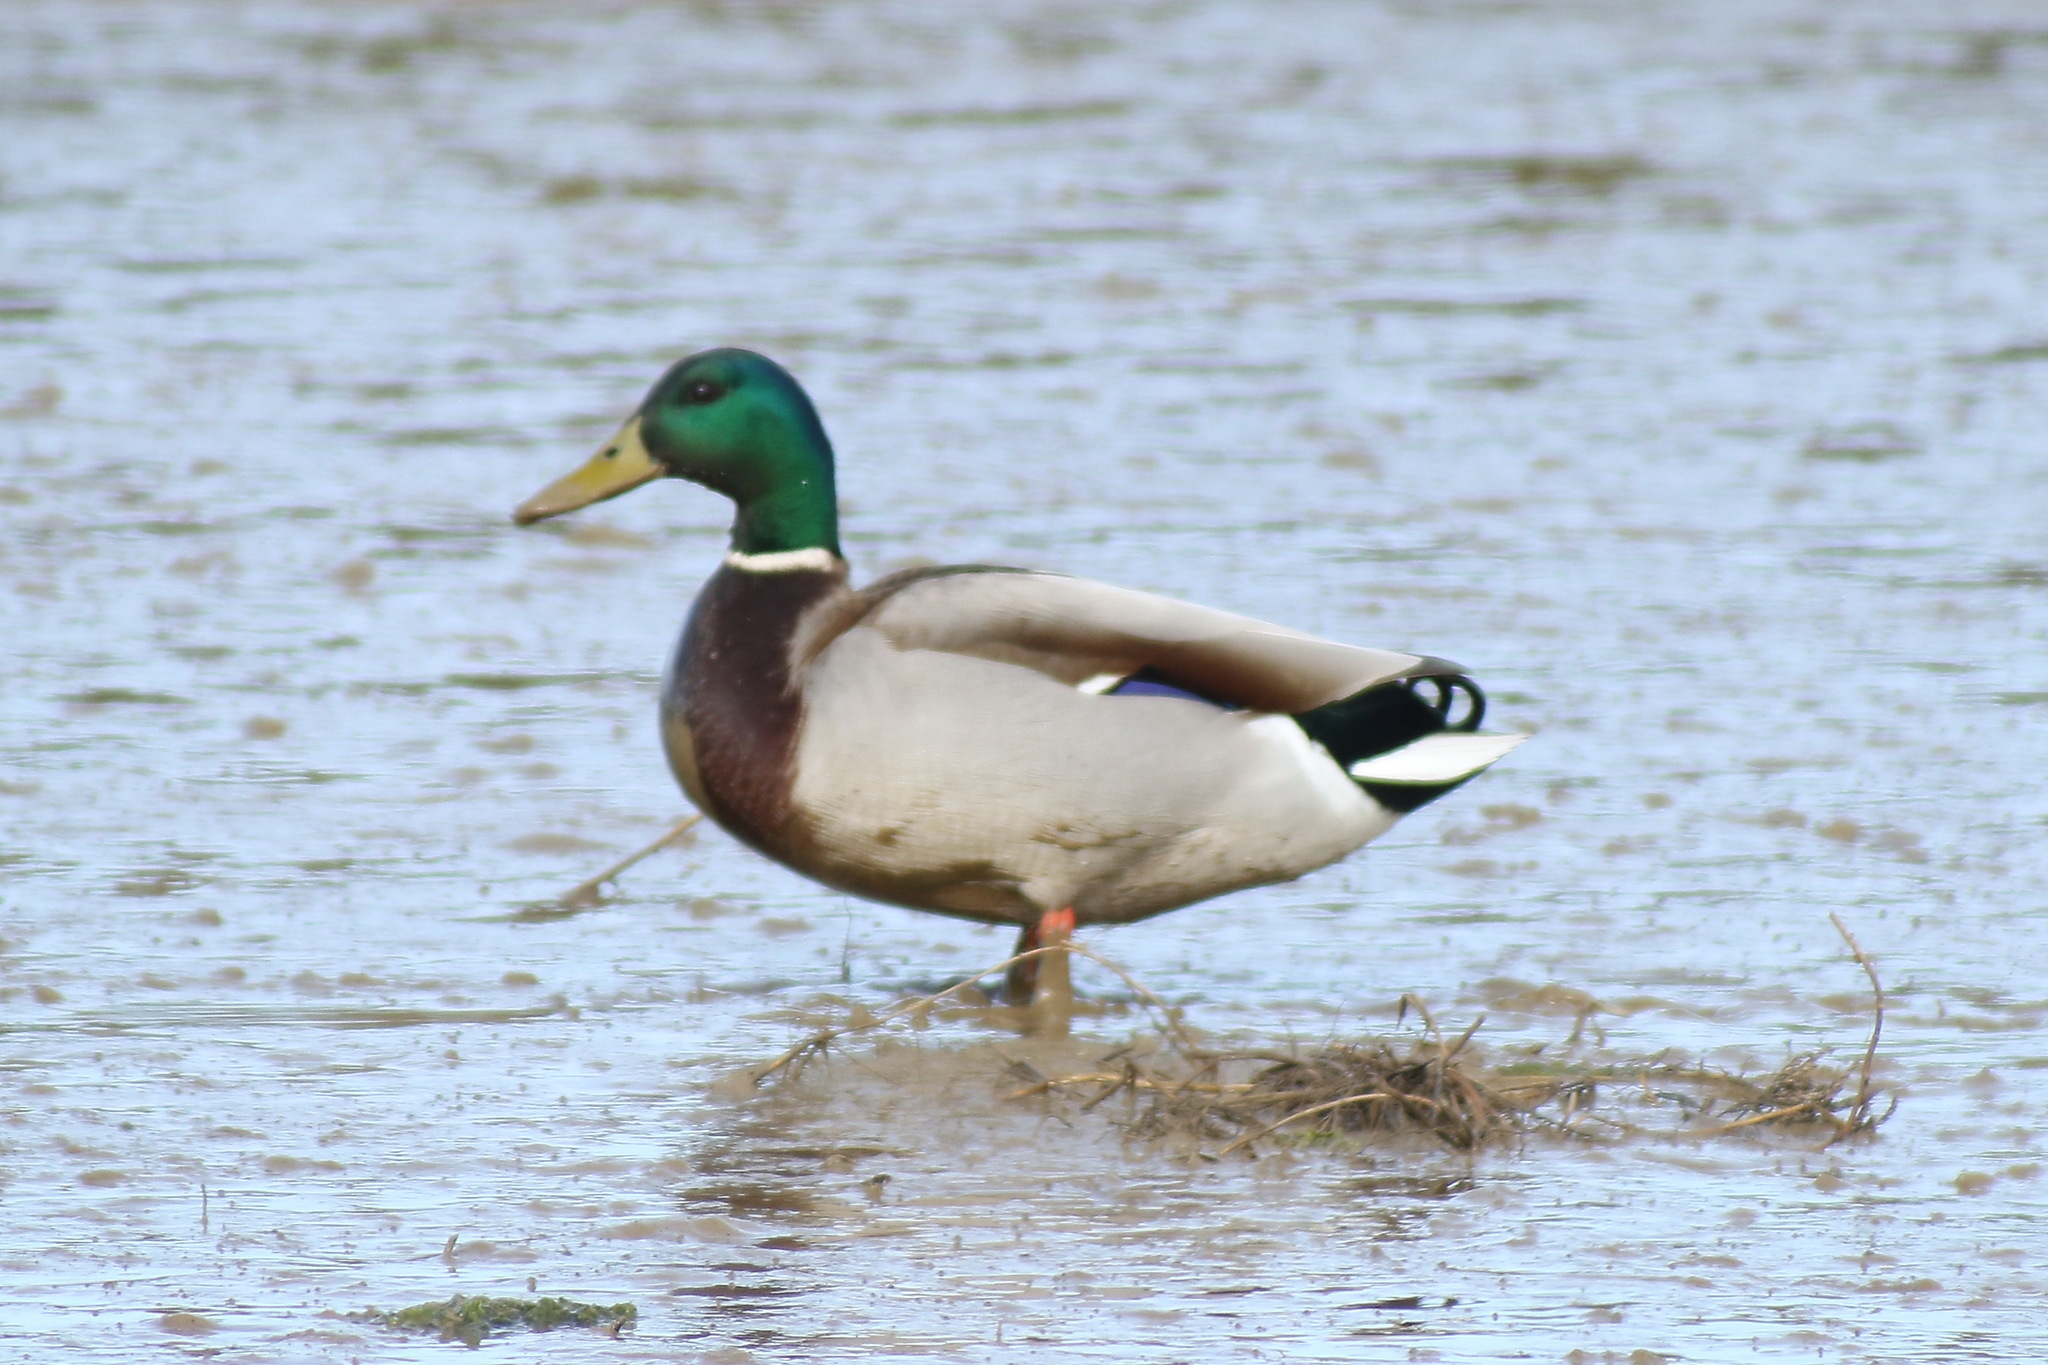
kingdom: Animalia
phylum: Chordata
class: Aves
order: Anseriformes
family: Anatidae
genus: Anas
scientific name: Anas platyrhynchos
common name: Mallard
